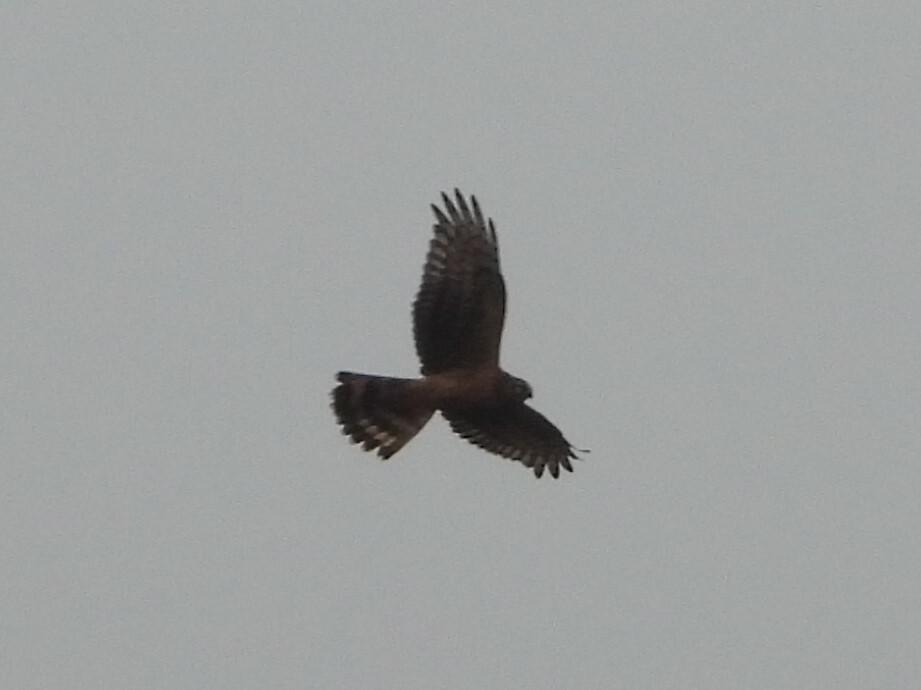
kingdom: Animalia
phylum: Chordata
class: Aves
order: Accipitriformes
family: Accipitridae
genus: Circus
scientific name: Circus cyaneus
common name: Hen harrier
